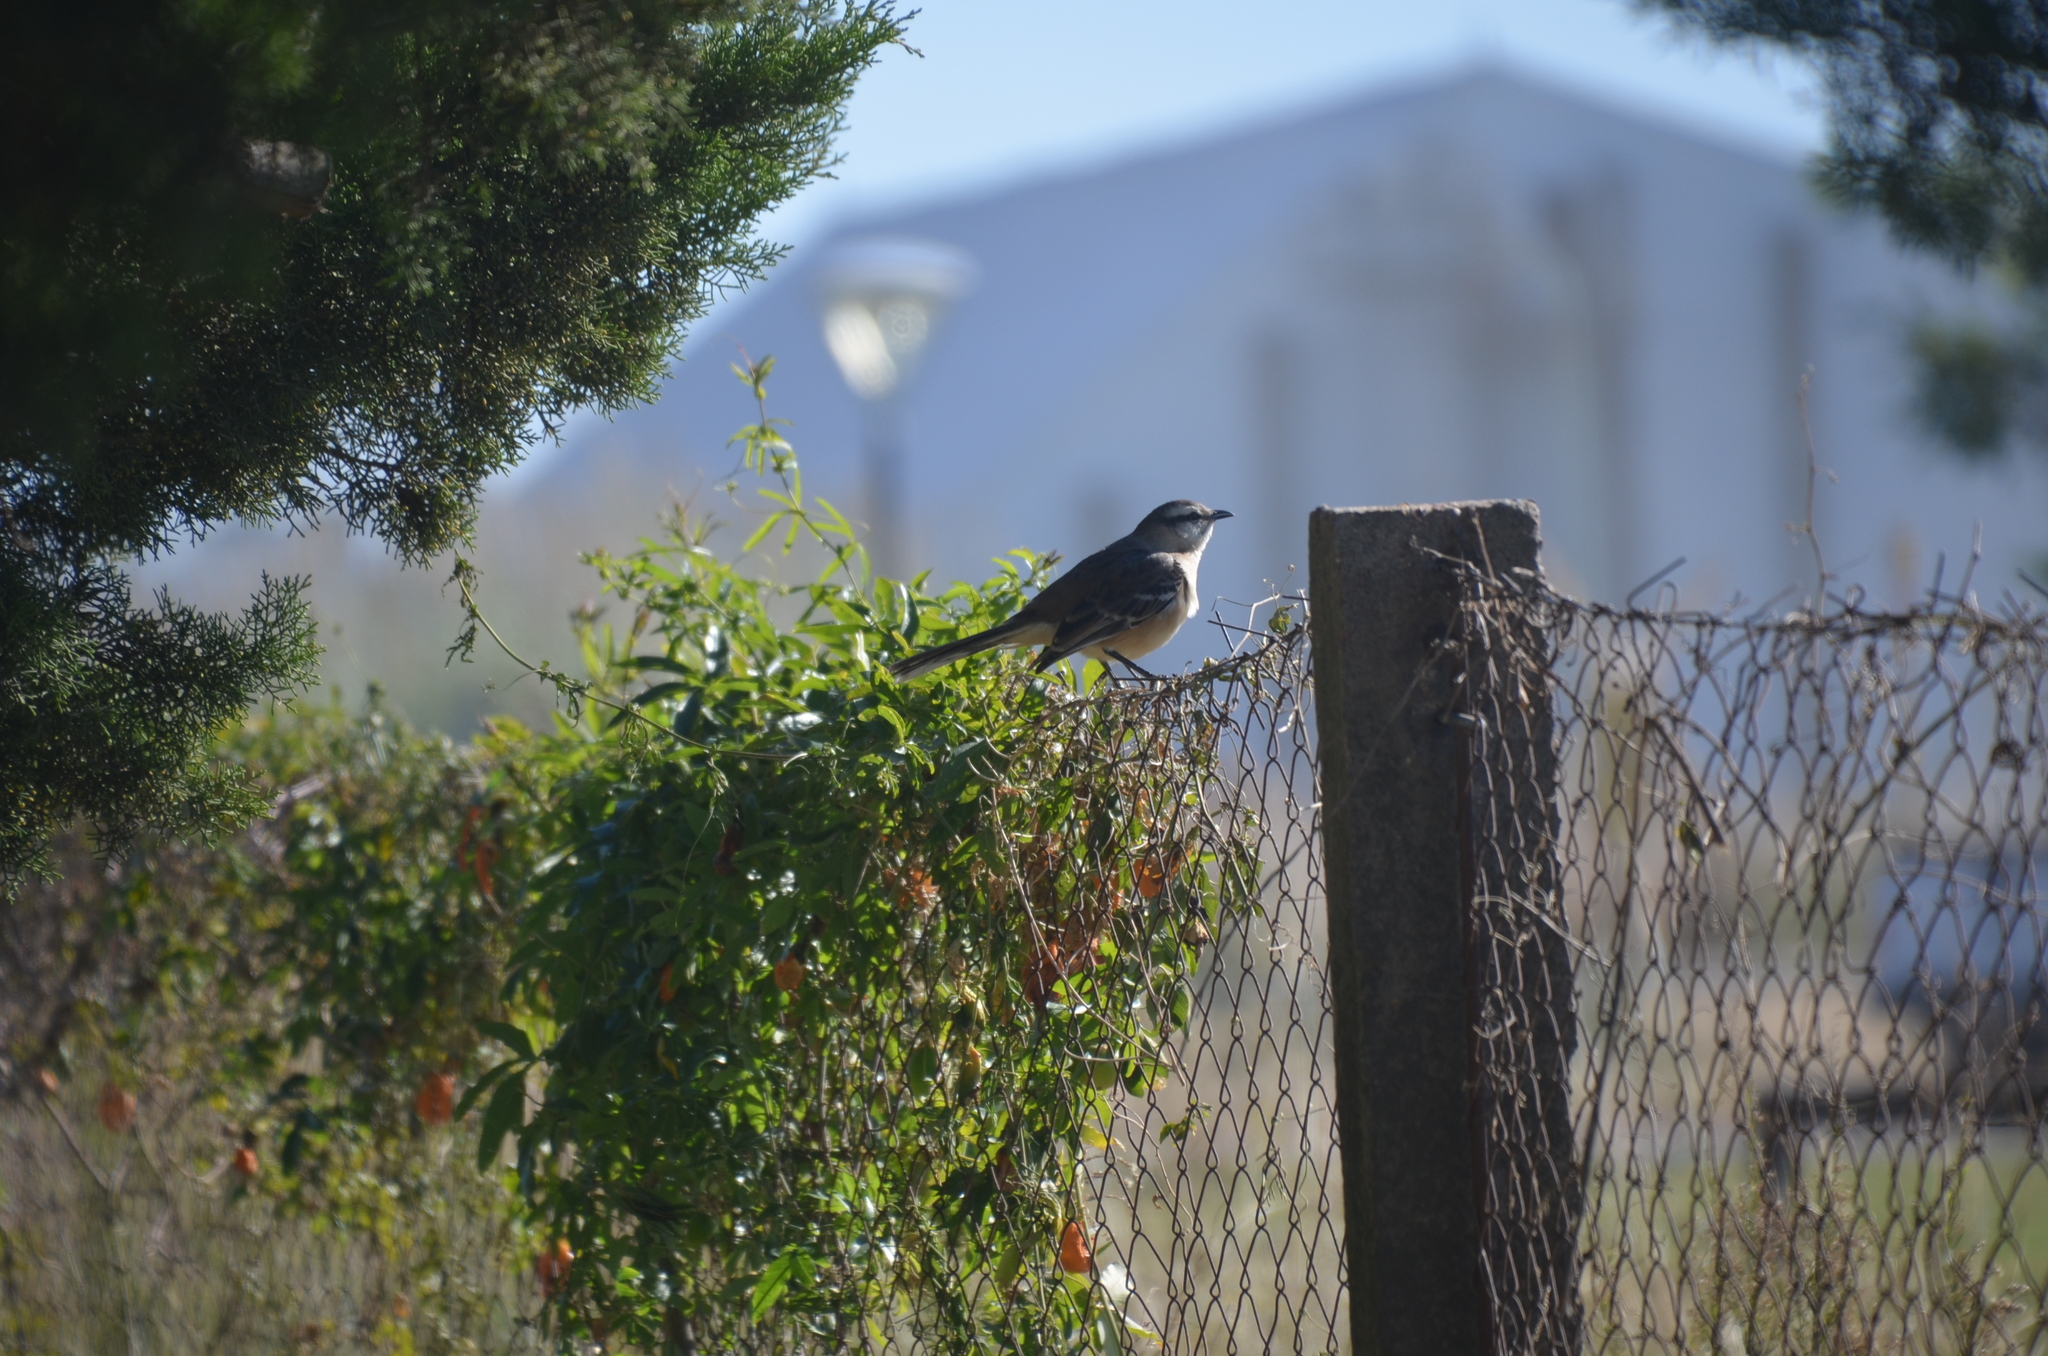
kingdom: Animalia
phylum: Chordata
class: Aves
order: Passeriformes
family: Mimidae
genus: Mimus
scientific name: Mimus saturninus
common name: Chalk-browed mockingbird
